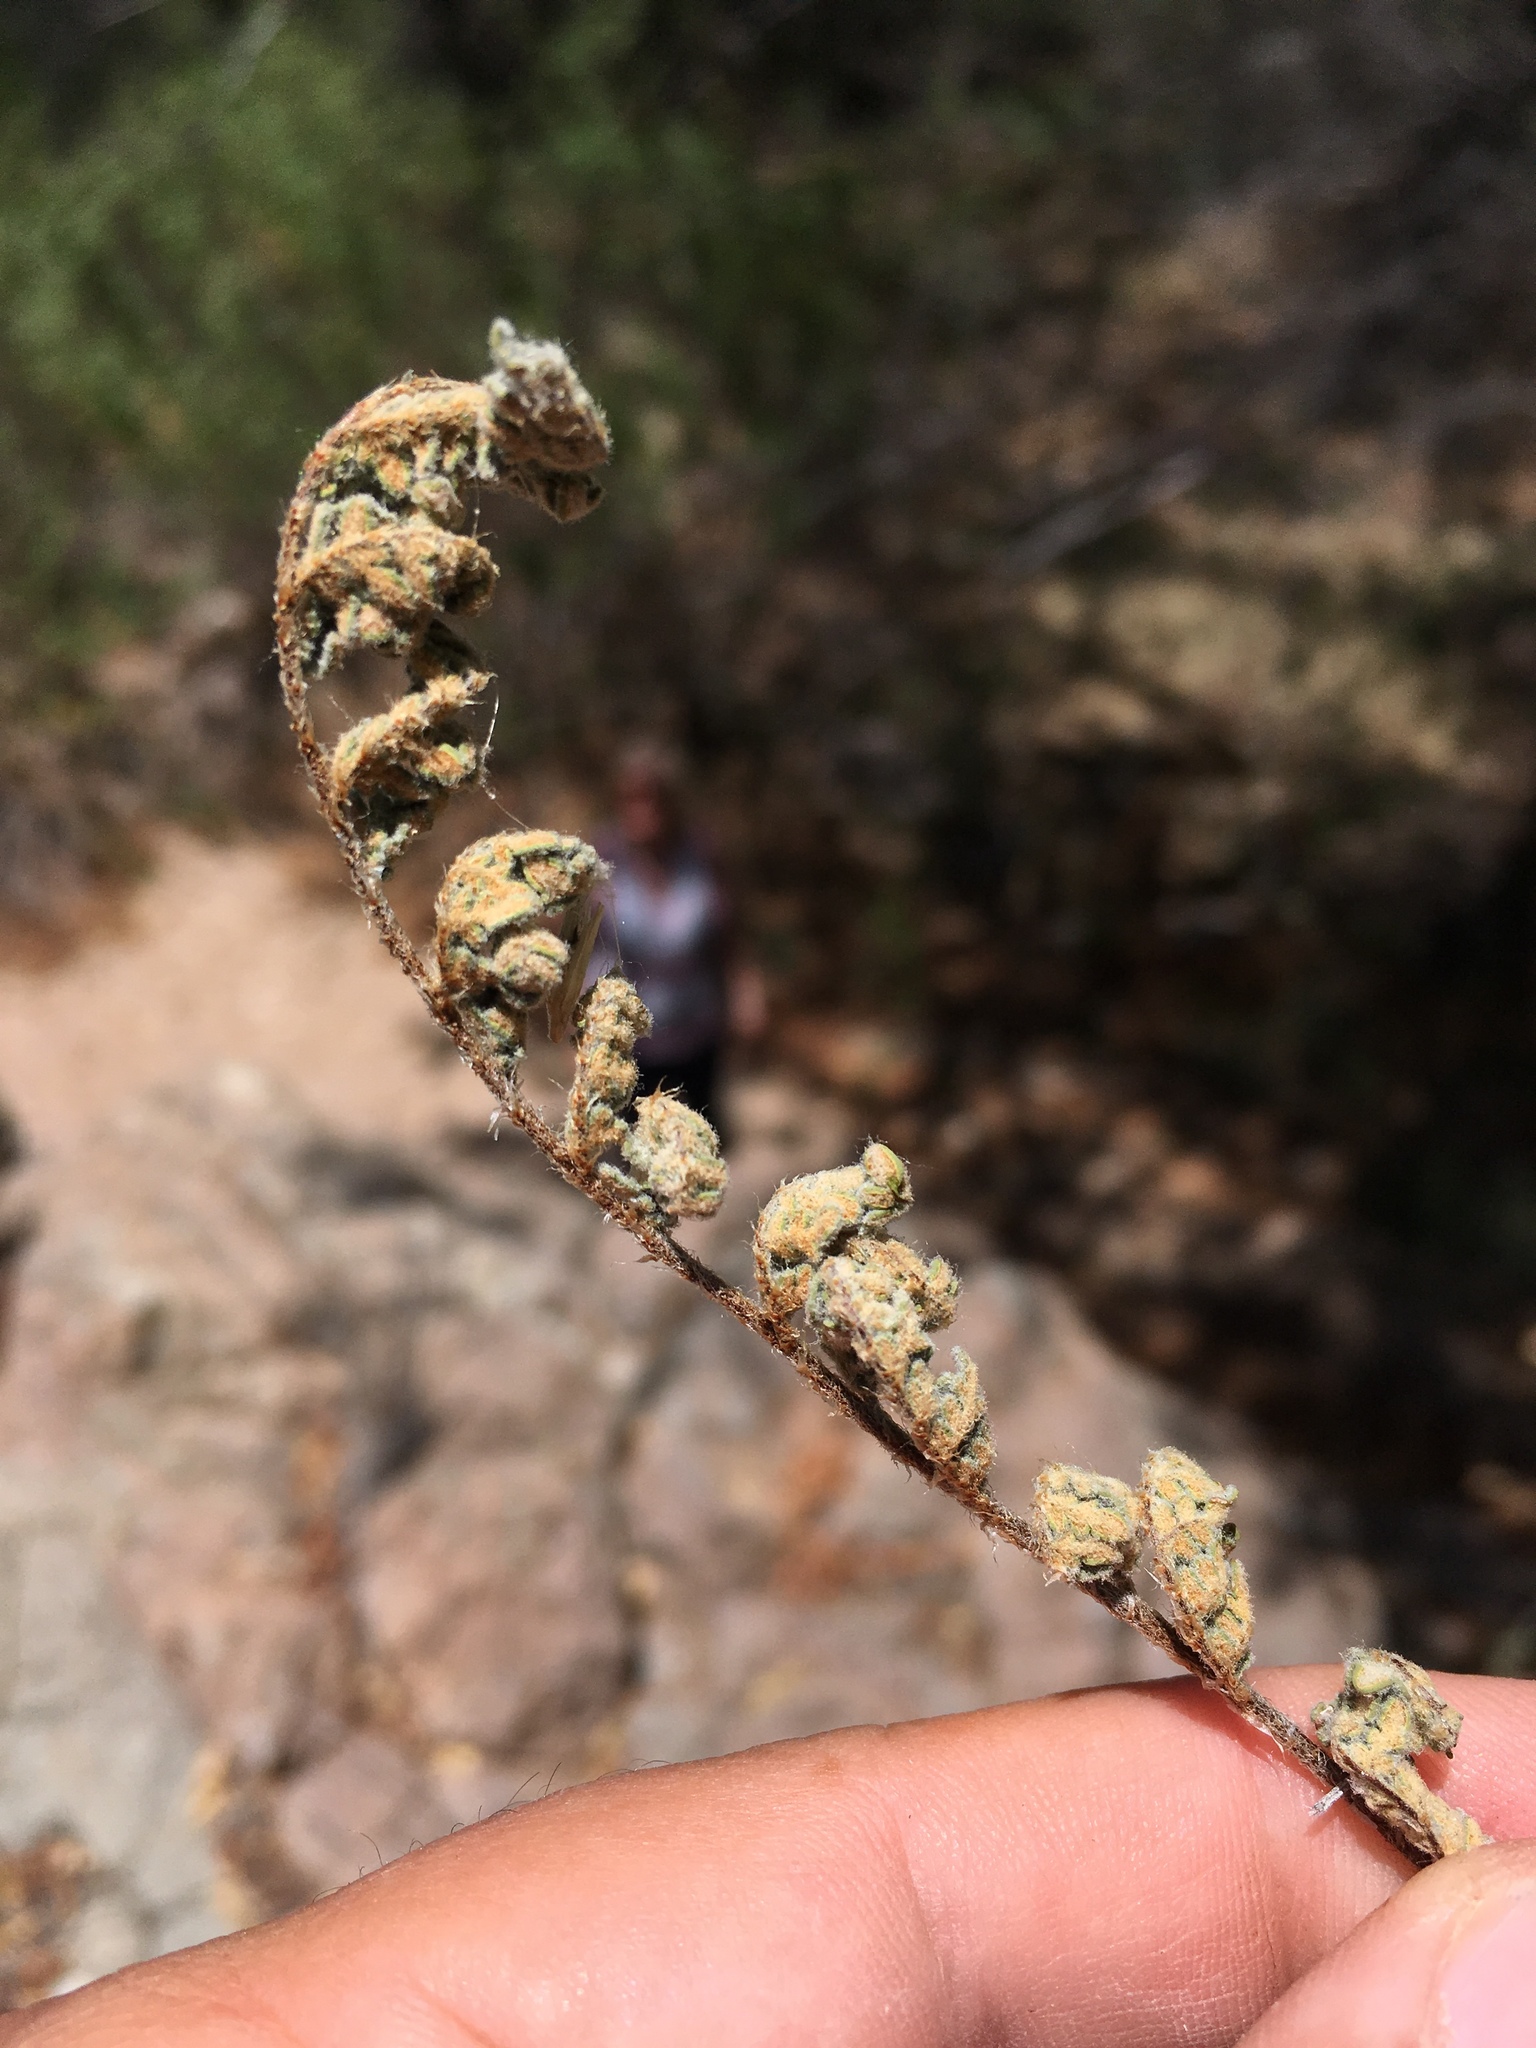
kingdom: Plantae
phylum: Tracheophyta
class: Polypodiopsida
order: Polypodiales
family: Pteridaceae
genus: Myriopteris
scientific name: Myriopteris rufa
